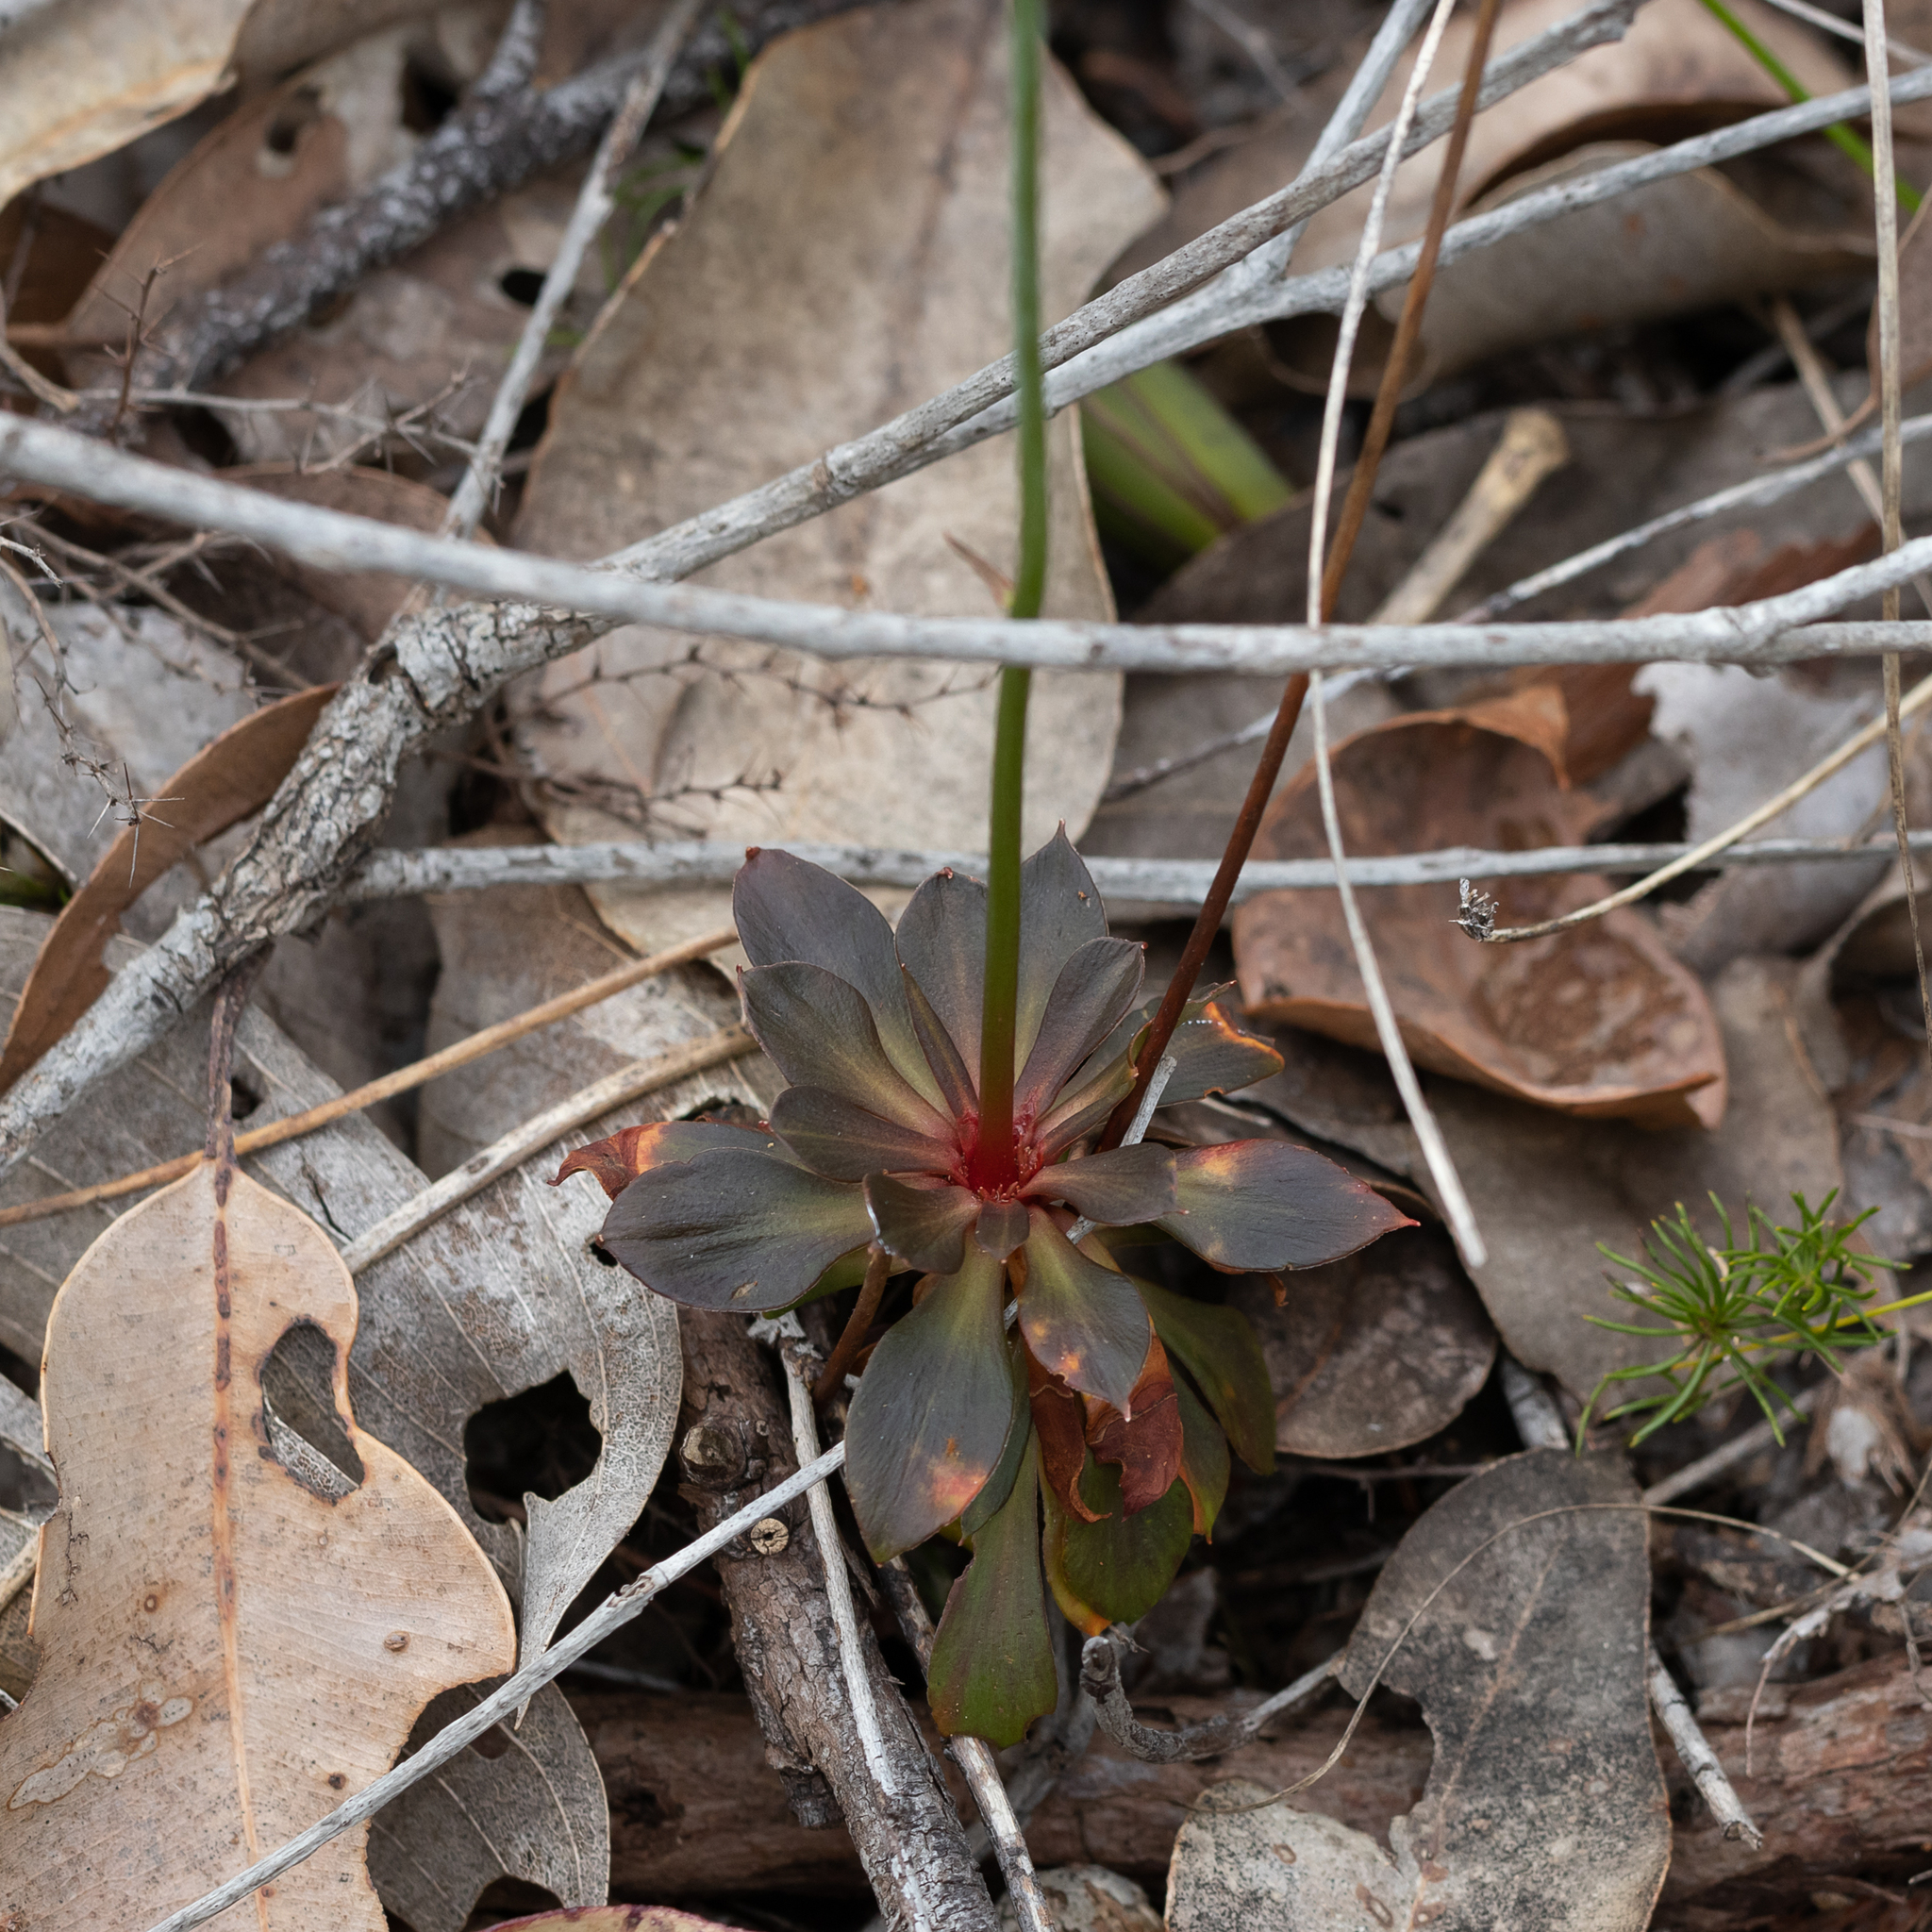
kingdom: Plantae
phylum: Tracheophyta
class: Magnoliopsida
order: Asterales
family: Stylidiaceae
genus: Stylidium
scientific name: Stylidium amoenum
